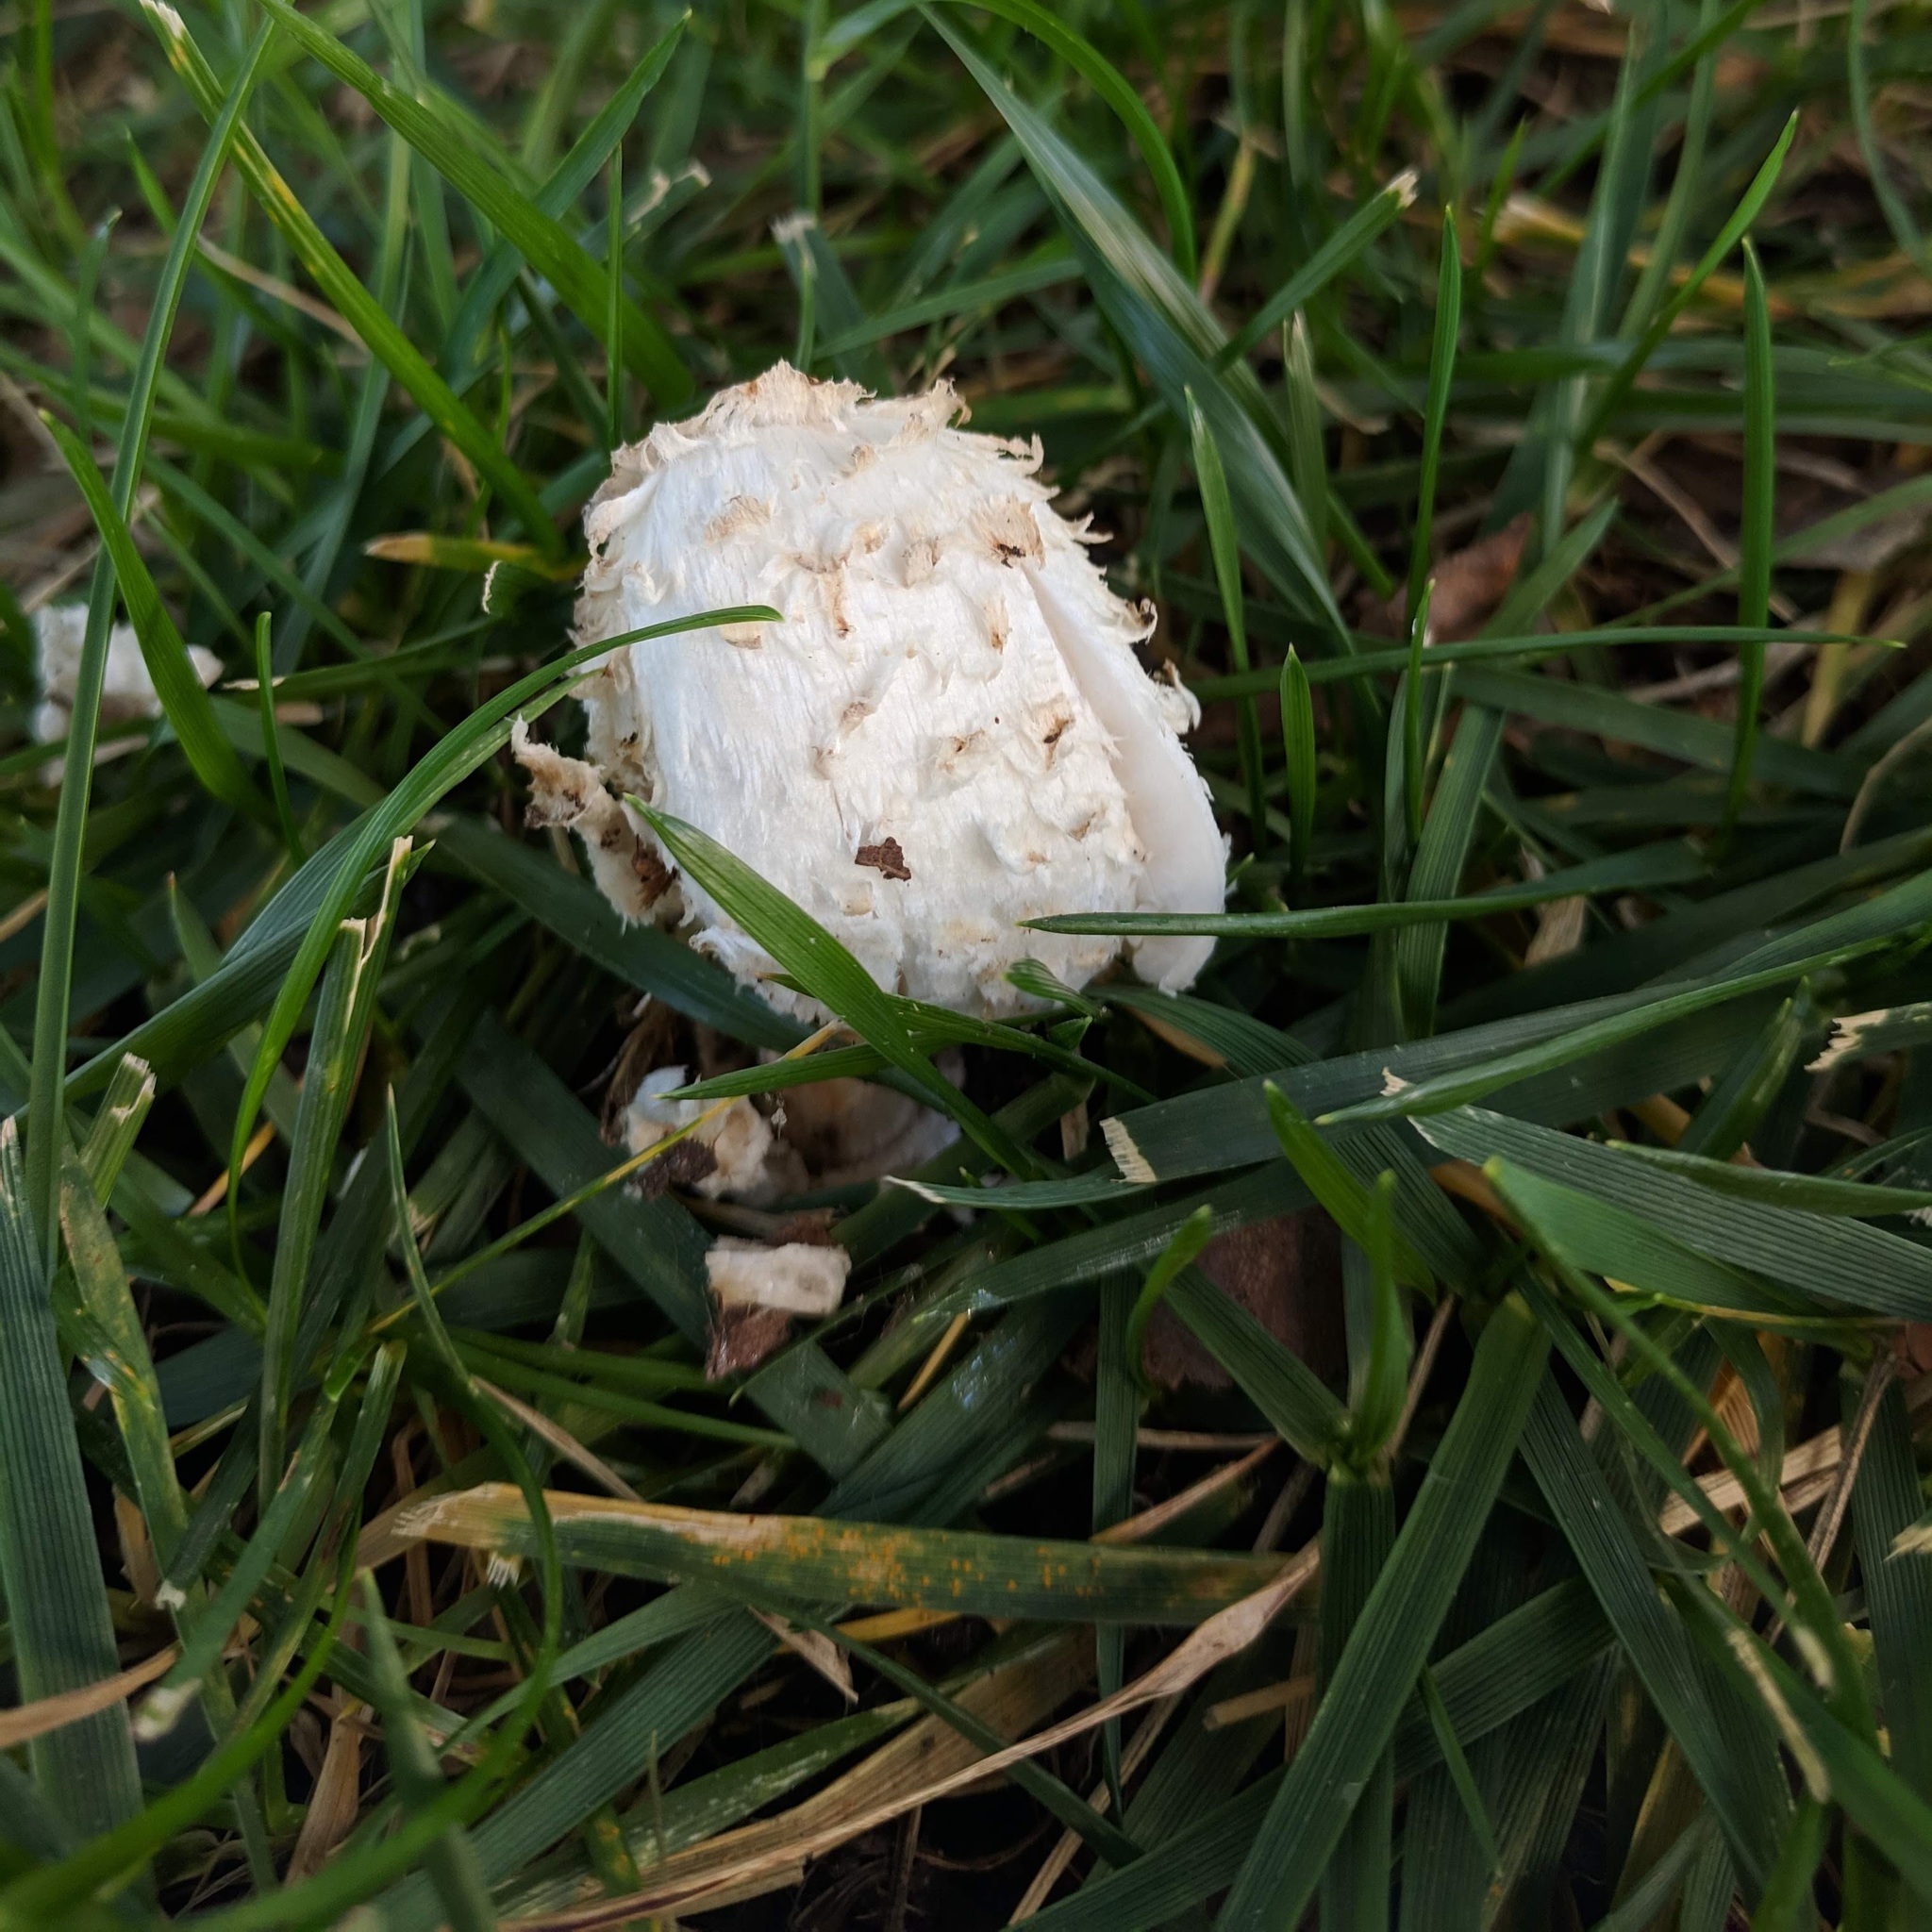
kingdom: Fungi
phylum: Basidiomycota
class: Agaricomycetes
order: Agaricales
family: Agaricaceae
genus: Coprinus
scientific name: Coprinus comatus
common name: Lawyer's wig
